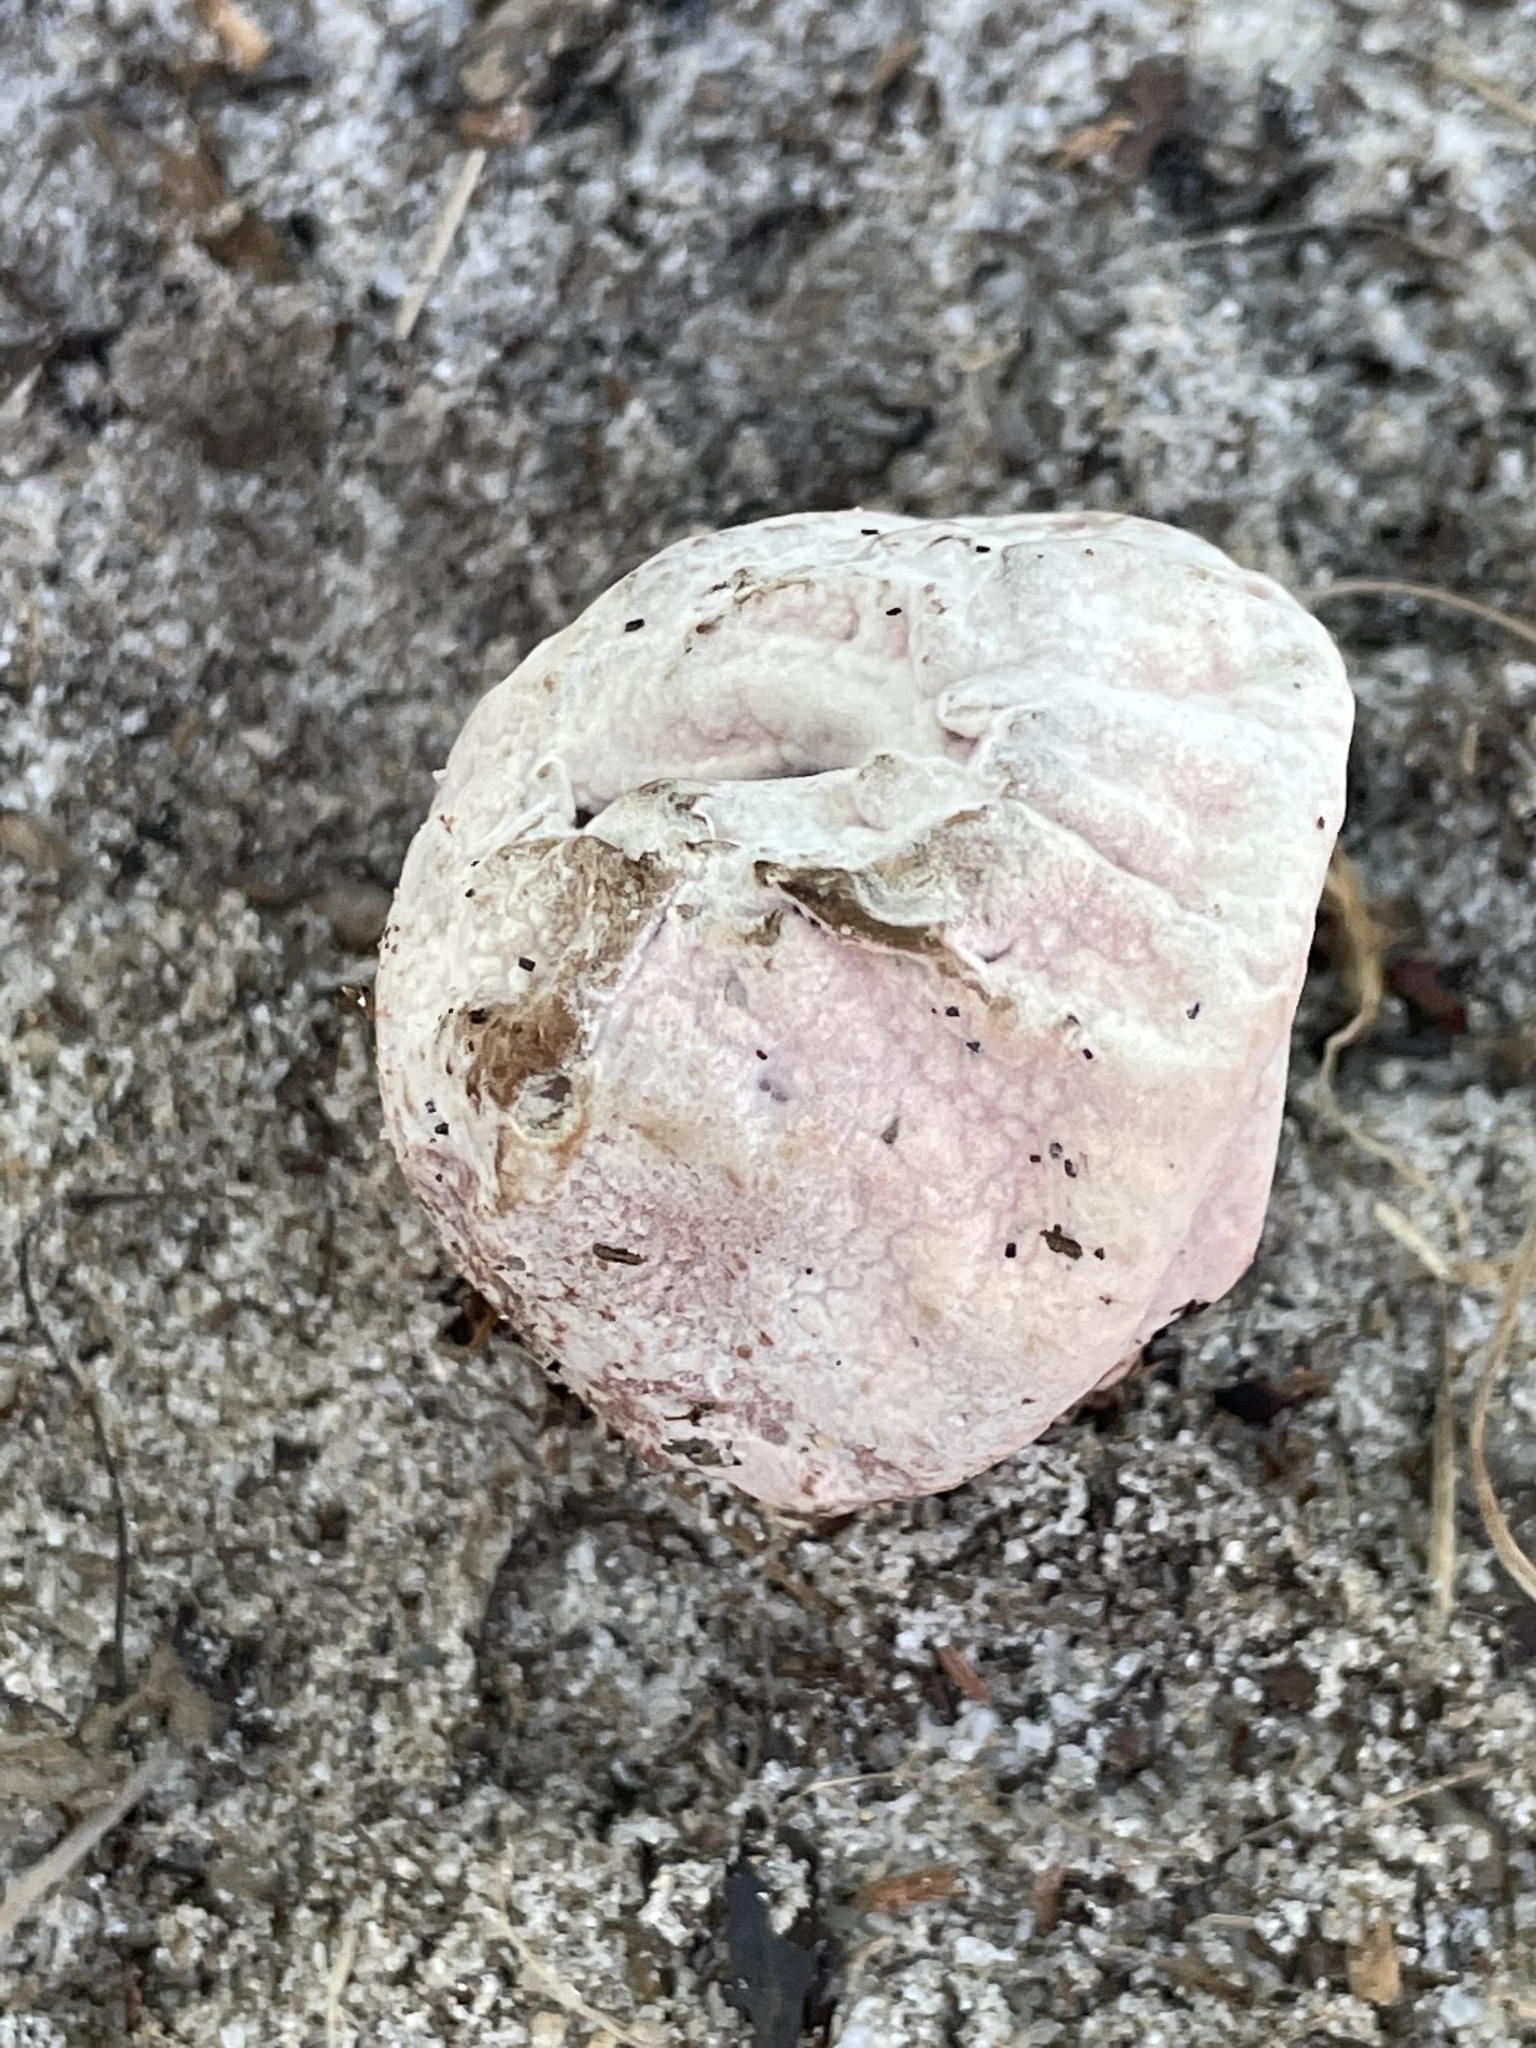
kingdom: Fungi
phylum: Ascomycota
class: Sordariomycetes
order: Hypocreales
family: Hypocreaceae
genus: Mycogone
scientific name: Mycogone rosea
